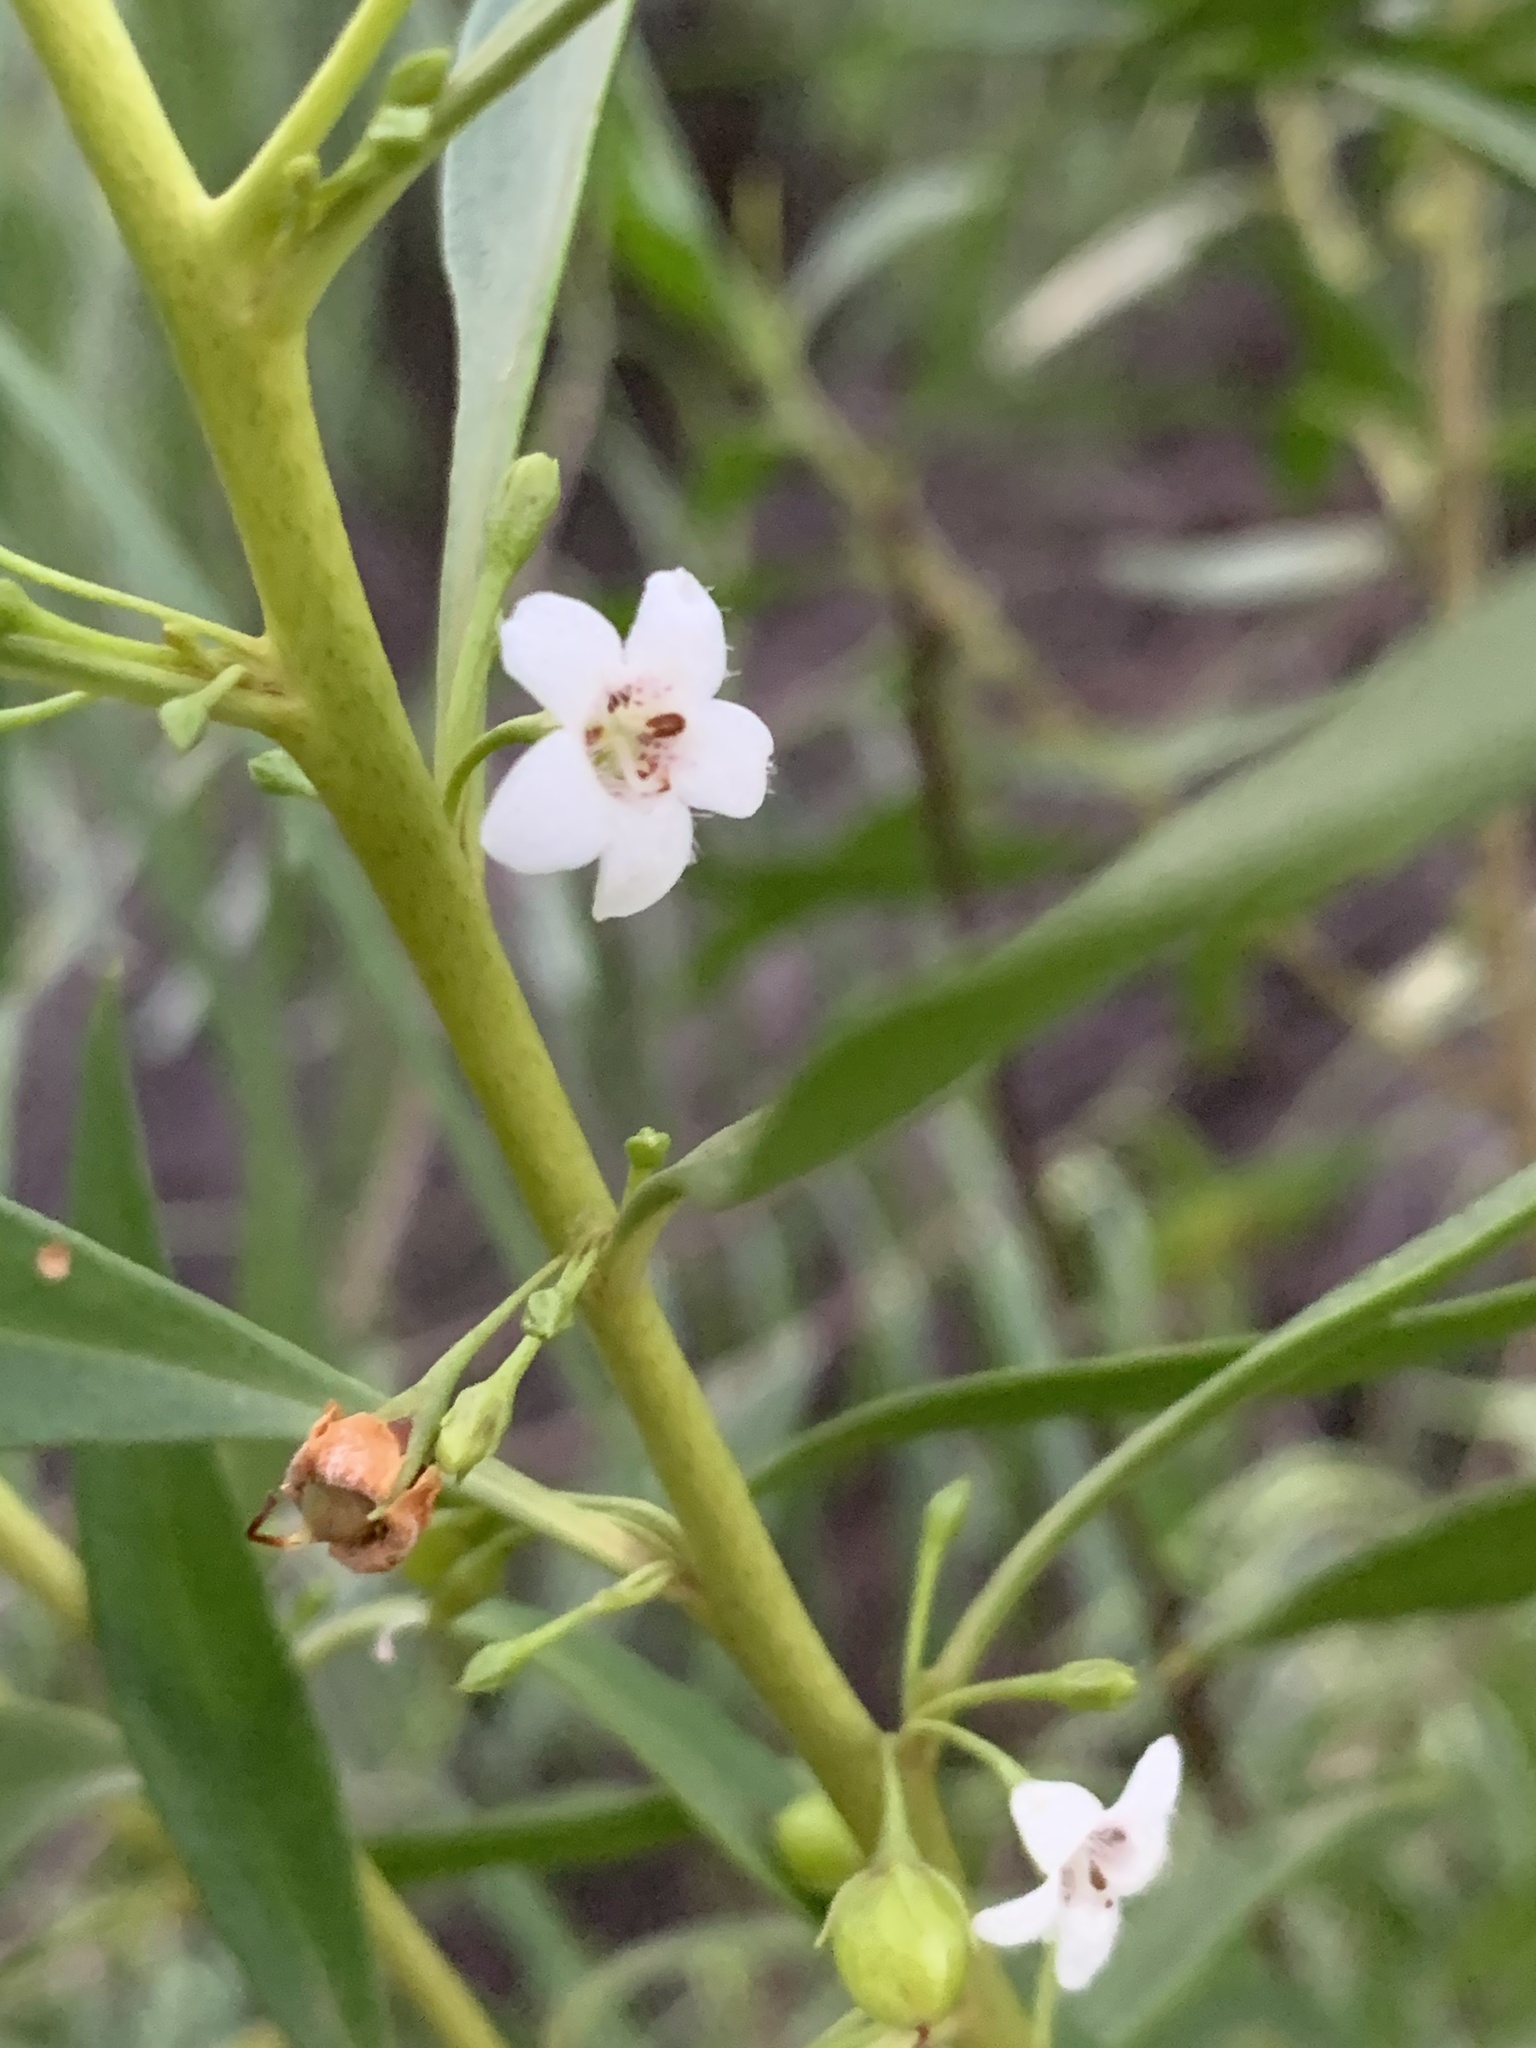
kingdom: Plantae
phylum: Tracheophyta
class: Magnoliopsida
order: Lamiales
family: Scrophulariaceae
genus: Myoporum
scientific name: Myoporum montanum
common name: Waterbush
